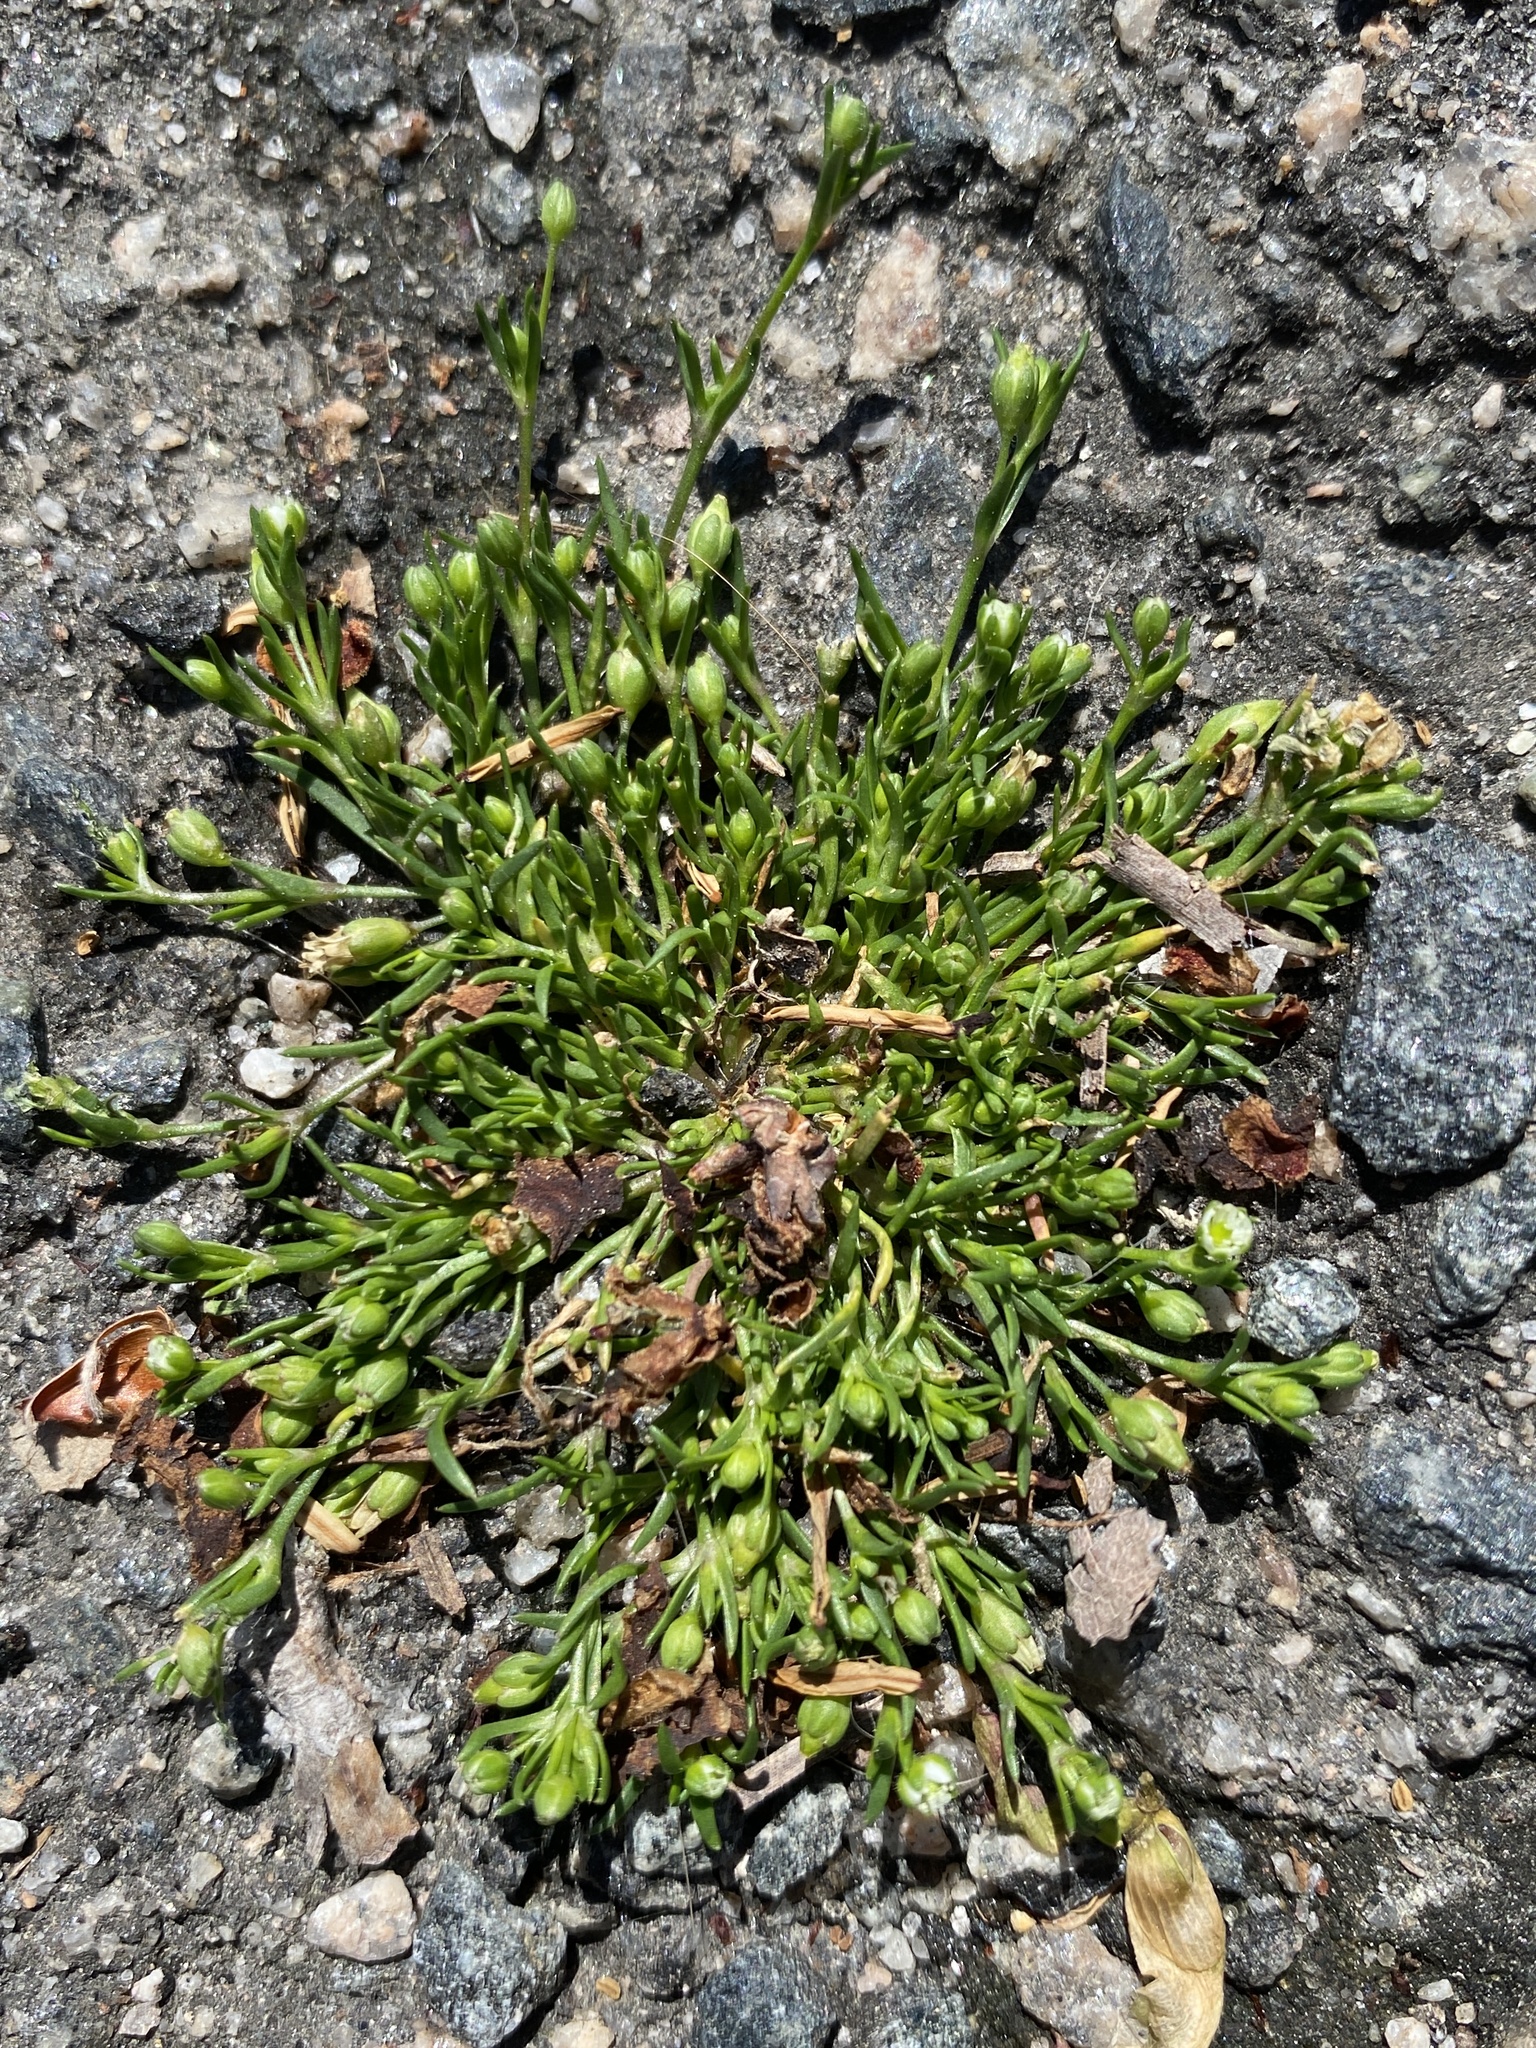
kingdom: Plantae
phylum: Tracheophyta
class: Magnoliopsida
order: Caryophyllales
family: Caryophyllaceae
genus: Sagina
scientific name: Sagina decumbens
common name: Decumbent pearlwort
